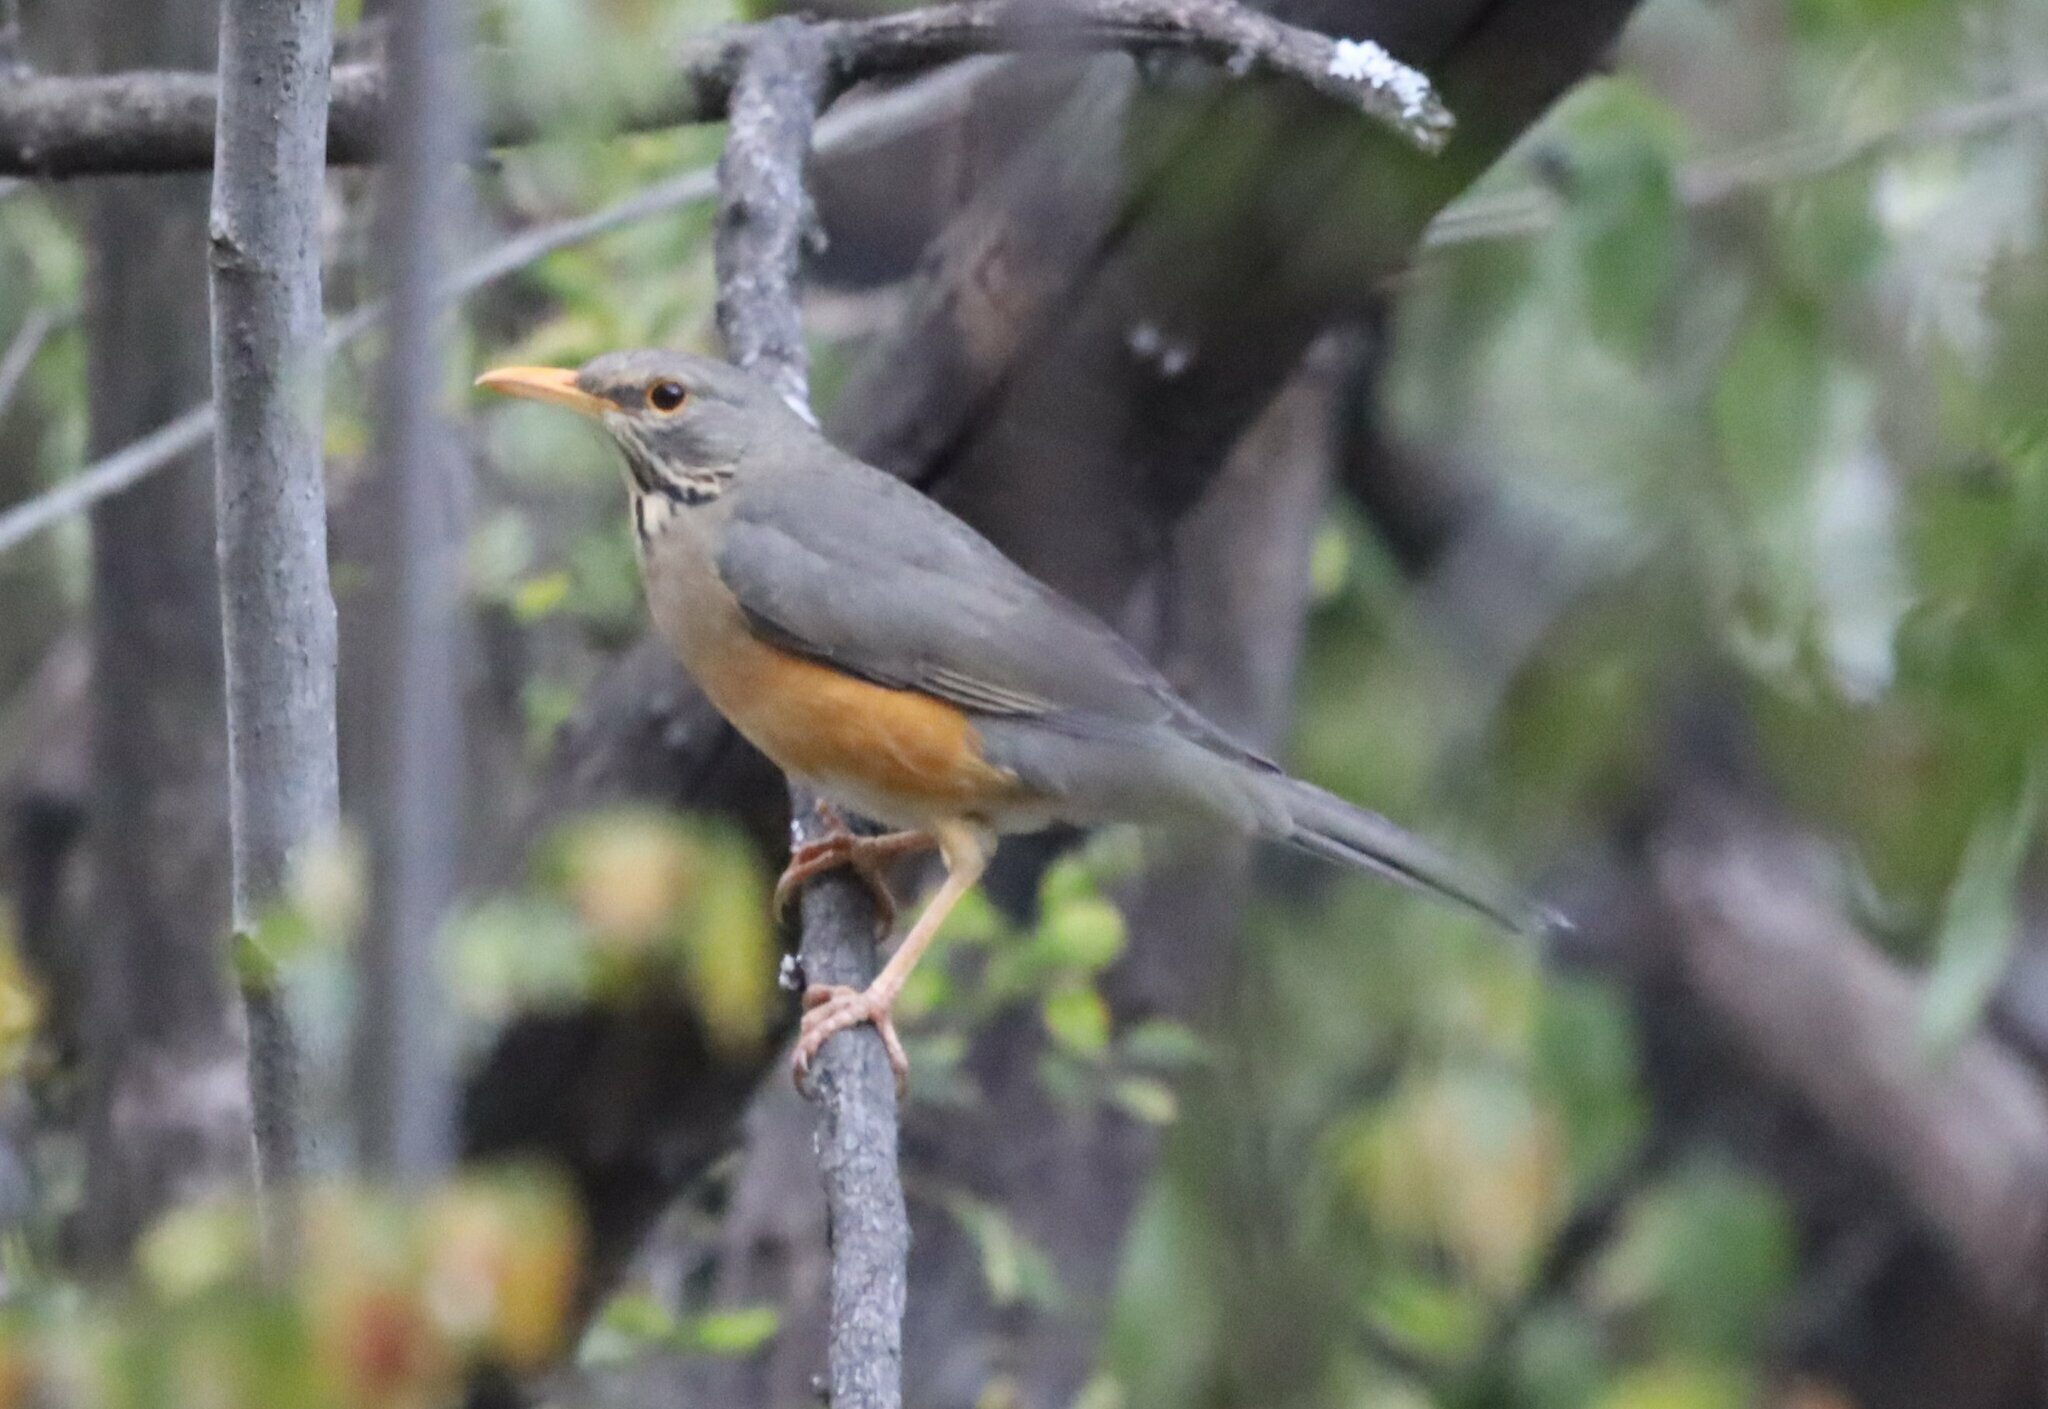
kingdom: Animalia
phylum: Chordata
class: Aves
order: Passeriformes
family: Turdidae
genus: Turdus
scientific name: Turdus libonyana
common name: Kurrichane thrush
